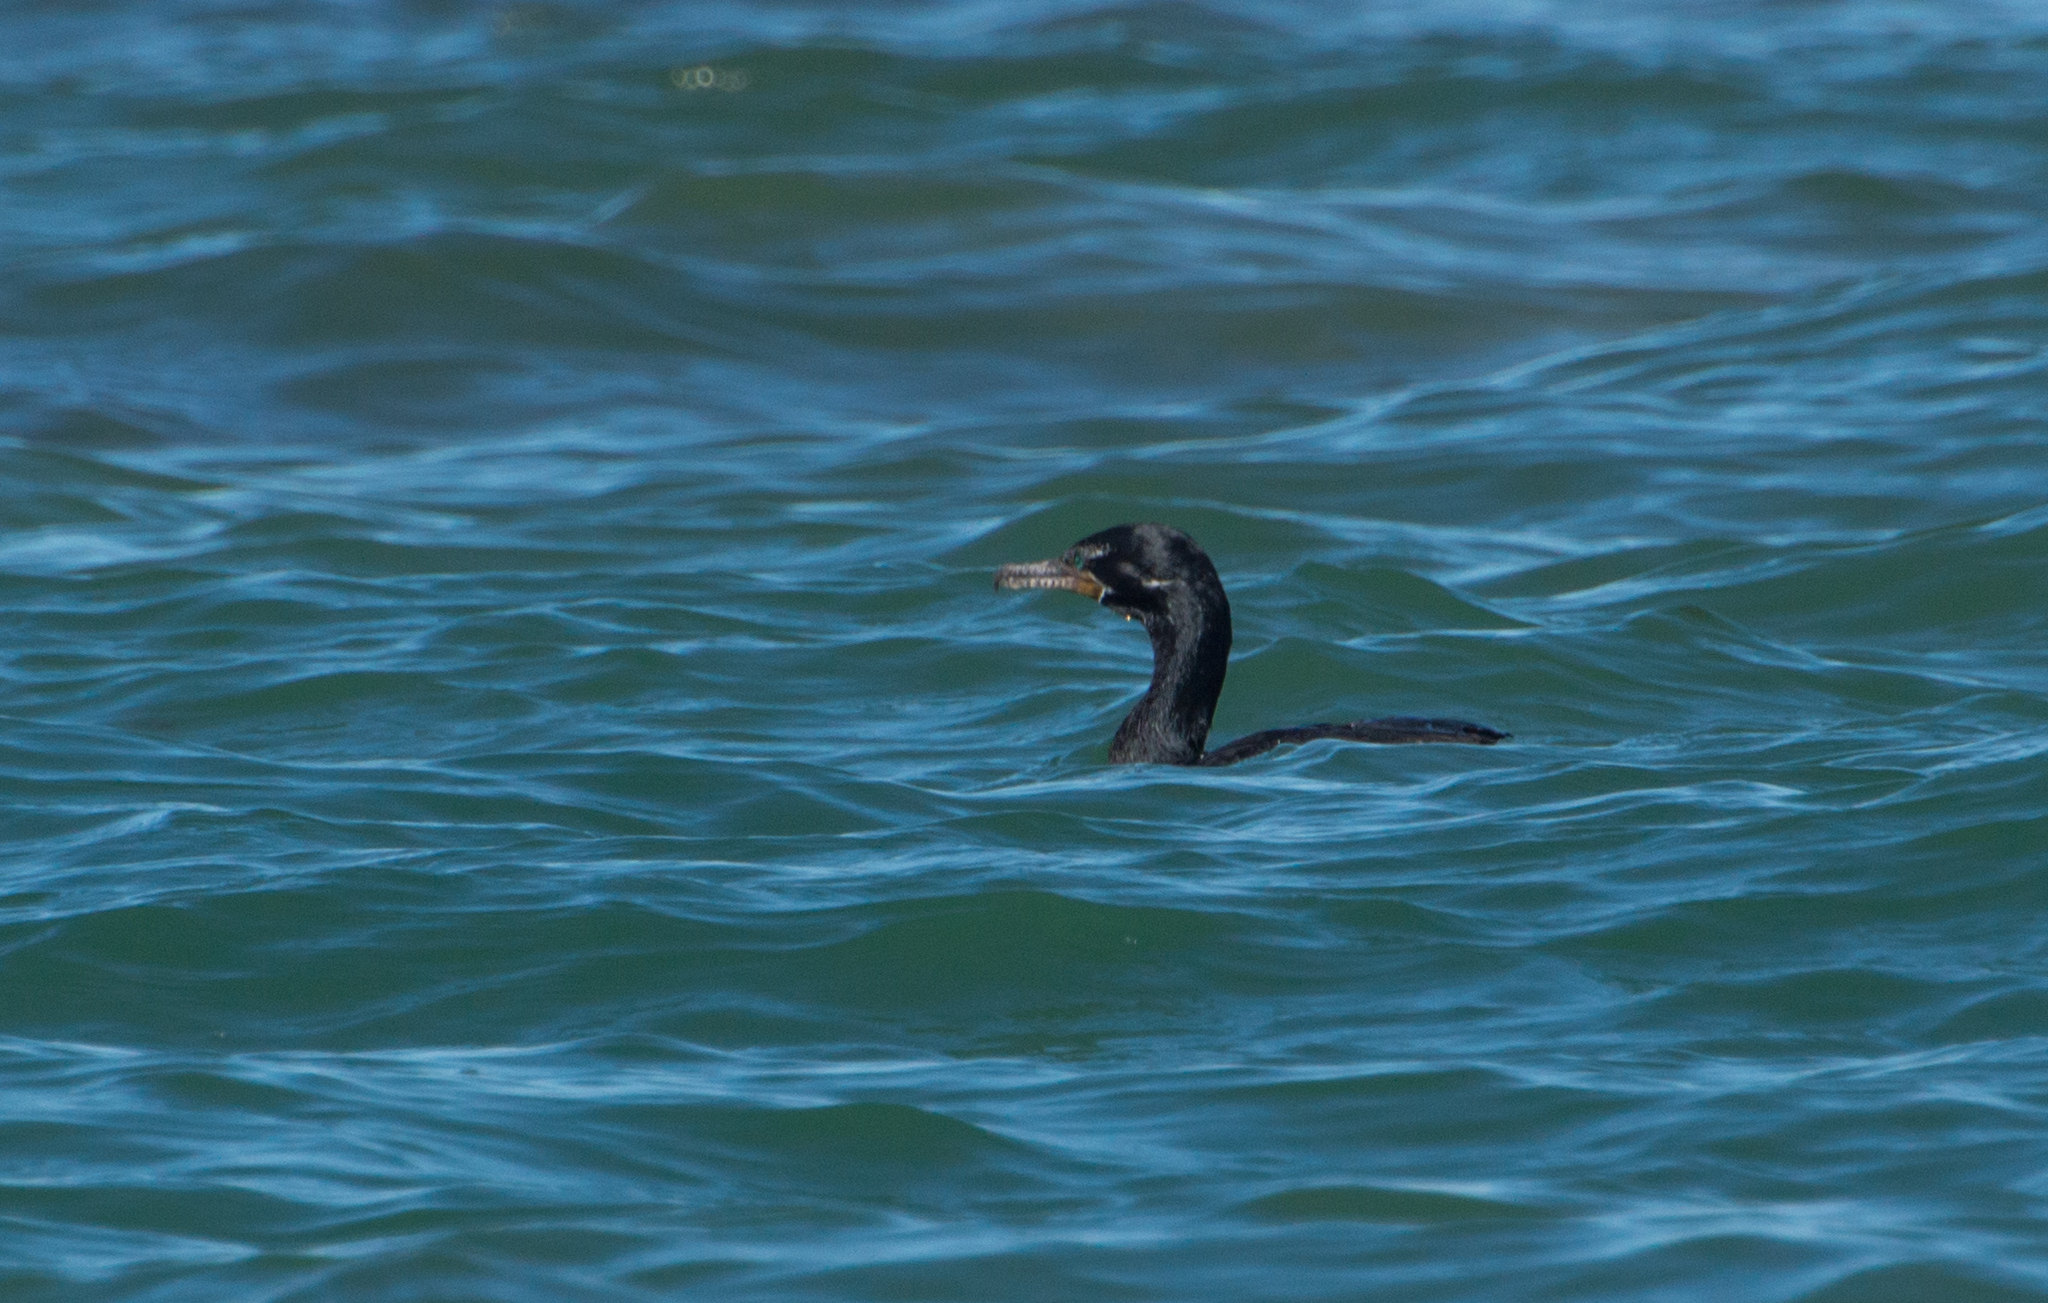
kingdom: Animalia
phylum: Chordata
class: Aves
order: Suliformes
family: Phalacrocoracidae
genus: Phalacrocorax
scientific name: Phalacrocorax brasilianus
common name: Neotropic cormorant
